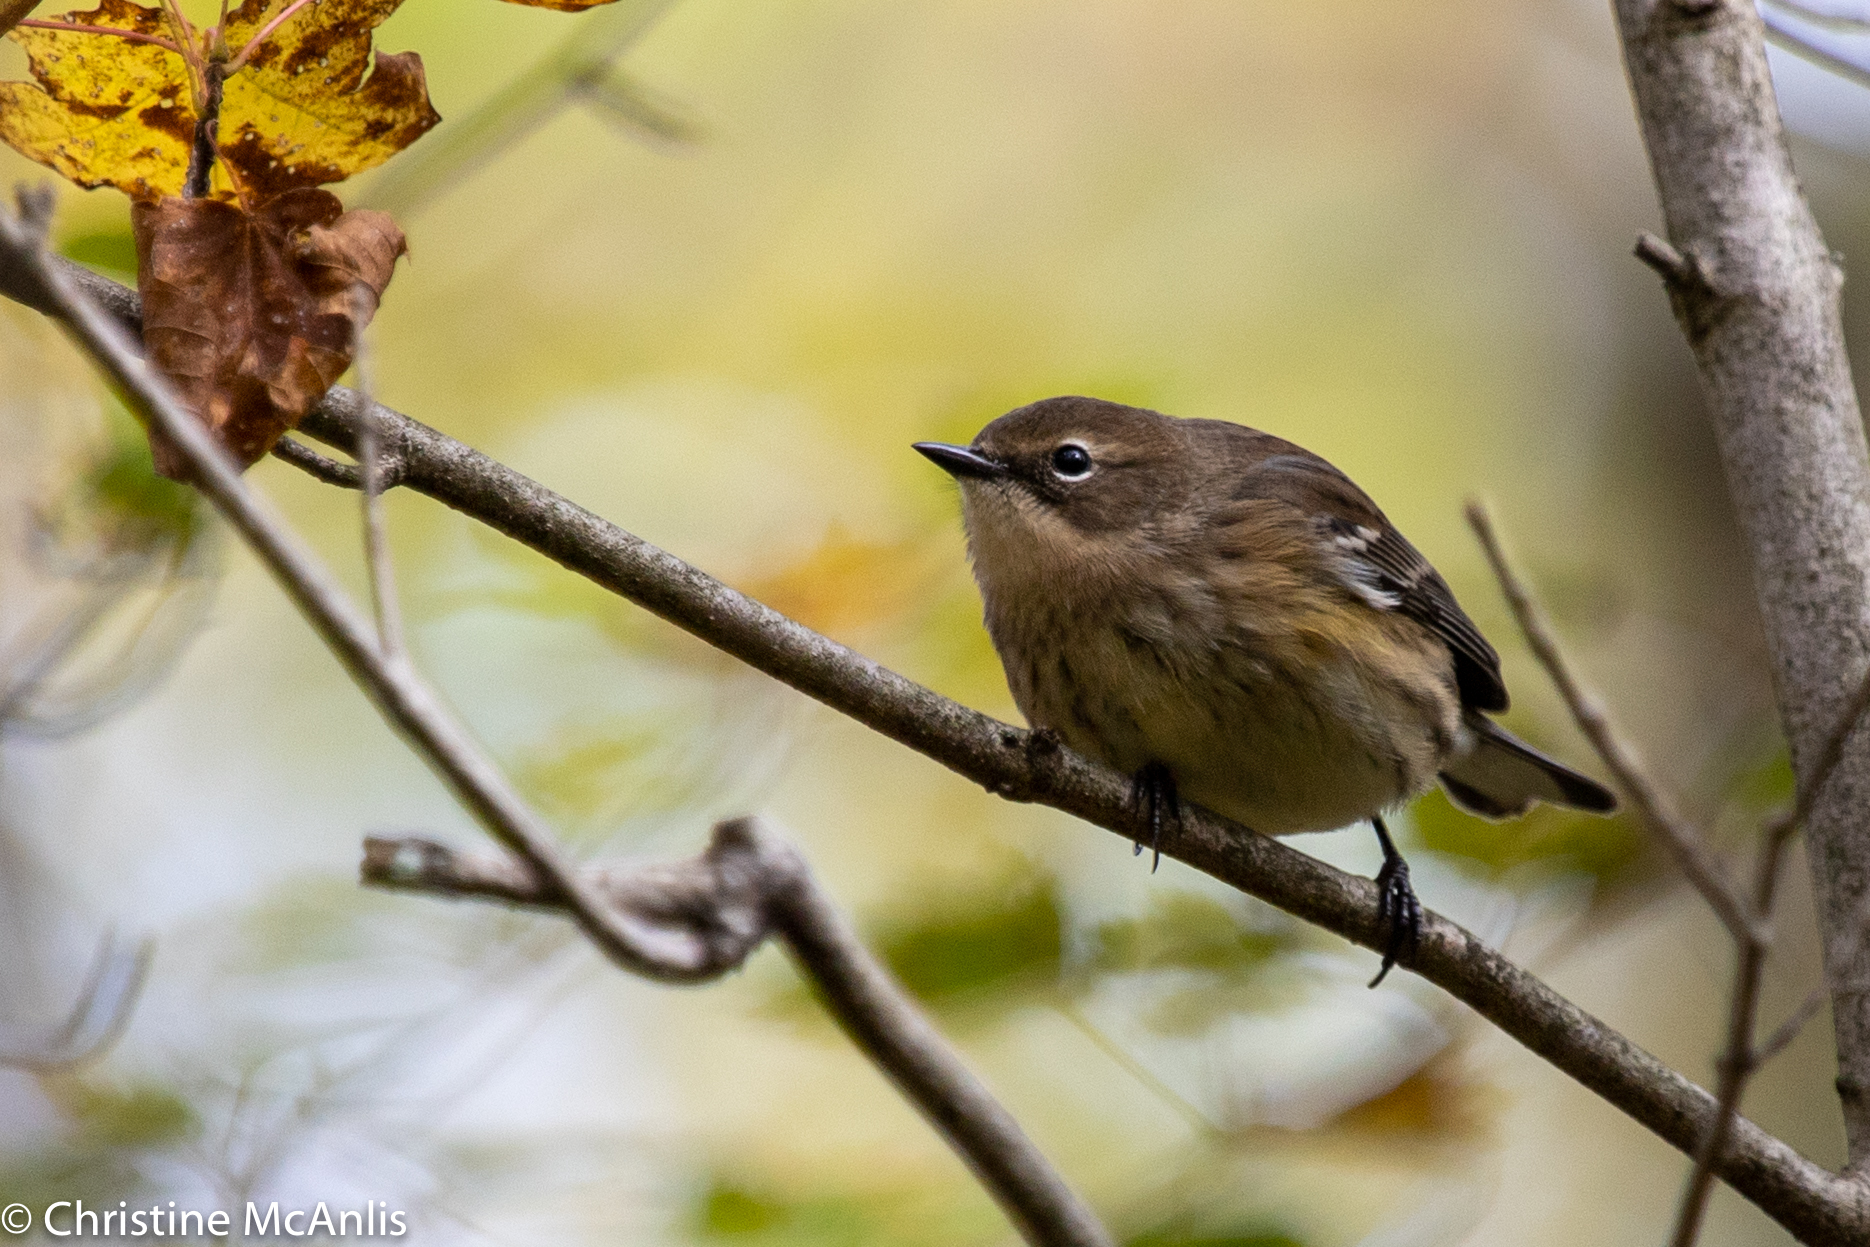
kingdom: Animalia
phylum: Chordata
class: Aves
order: Passeriformes
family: Parulidae
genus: Setophaga
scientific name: Setophaga coronata
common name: Myrtle warbler
